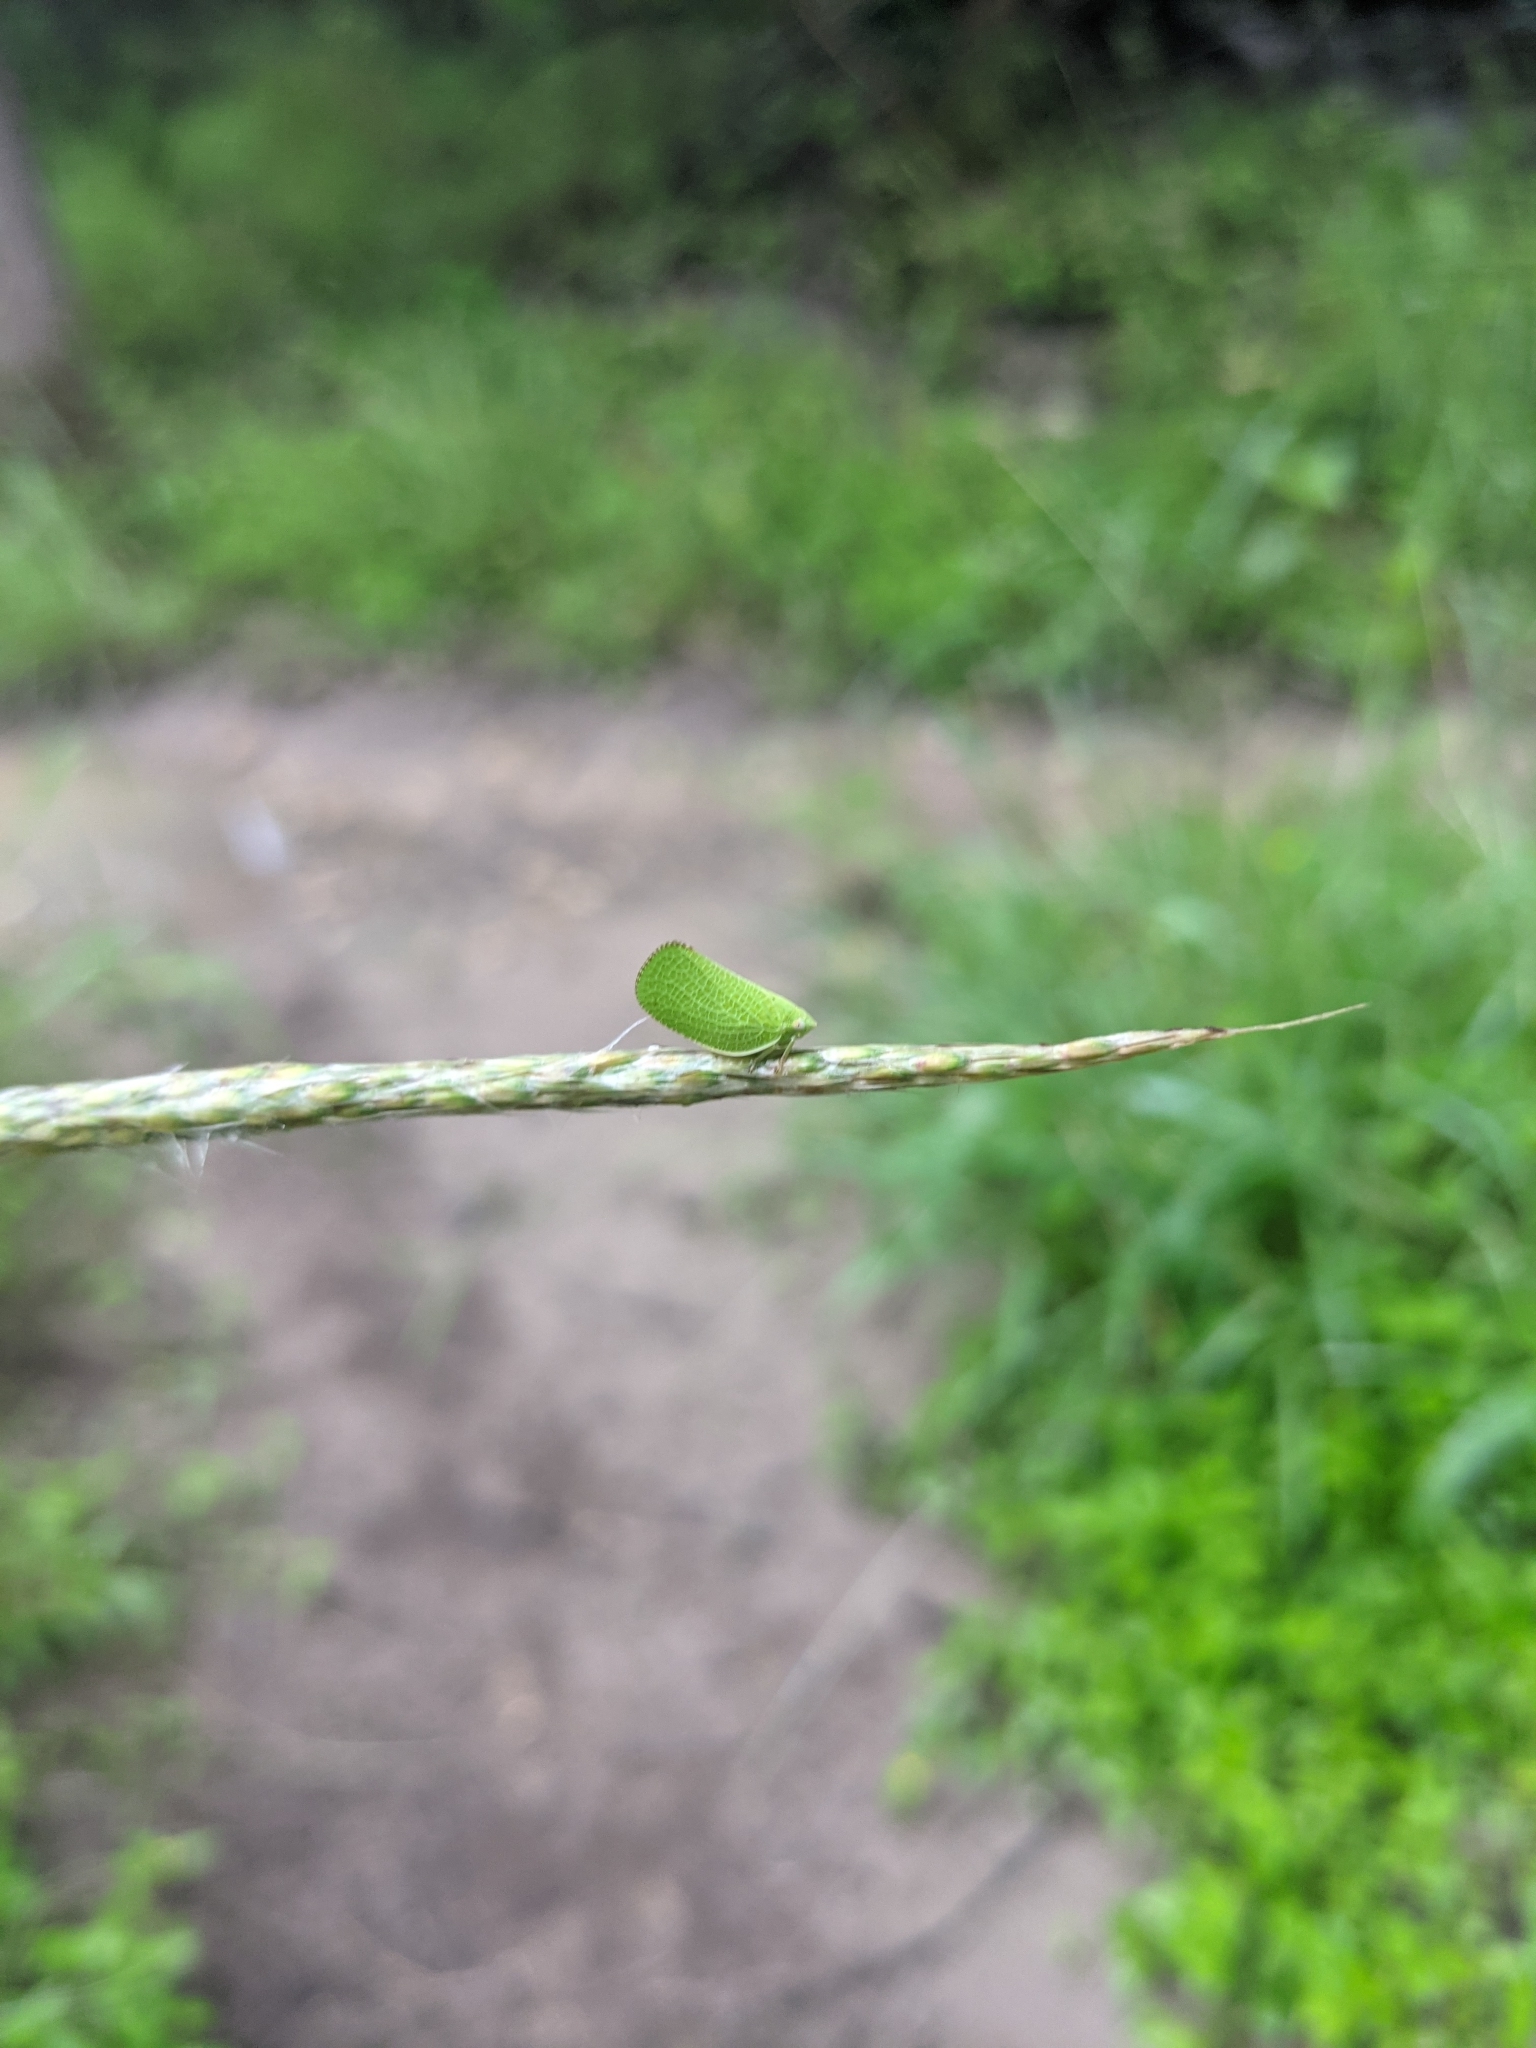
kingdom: Animalia
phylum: Arthropoda
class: Insecta
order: Hemiptera
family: Acanaloniidae
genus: Acanalonia
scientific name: Acanalonia conica
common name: Green cone-headed planthopper
